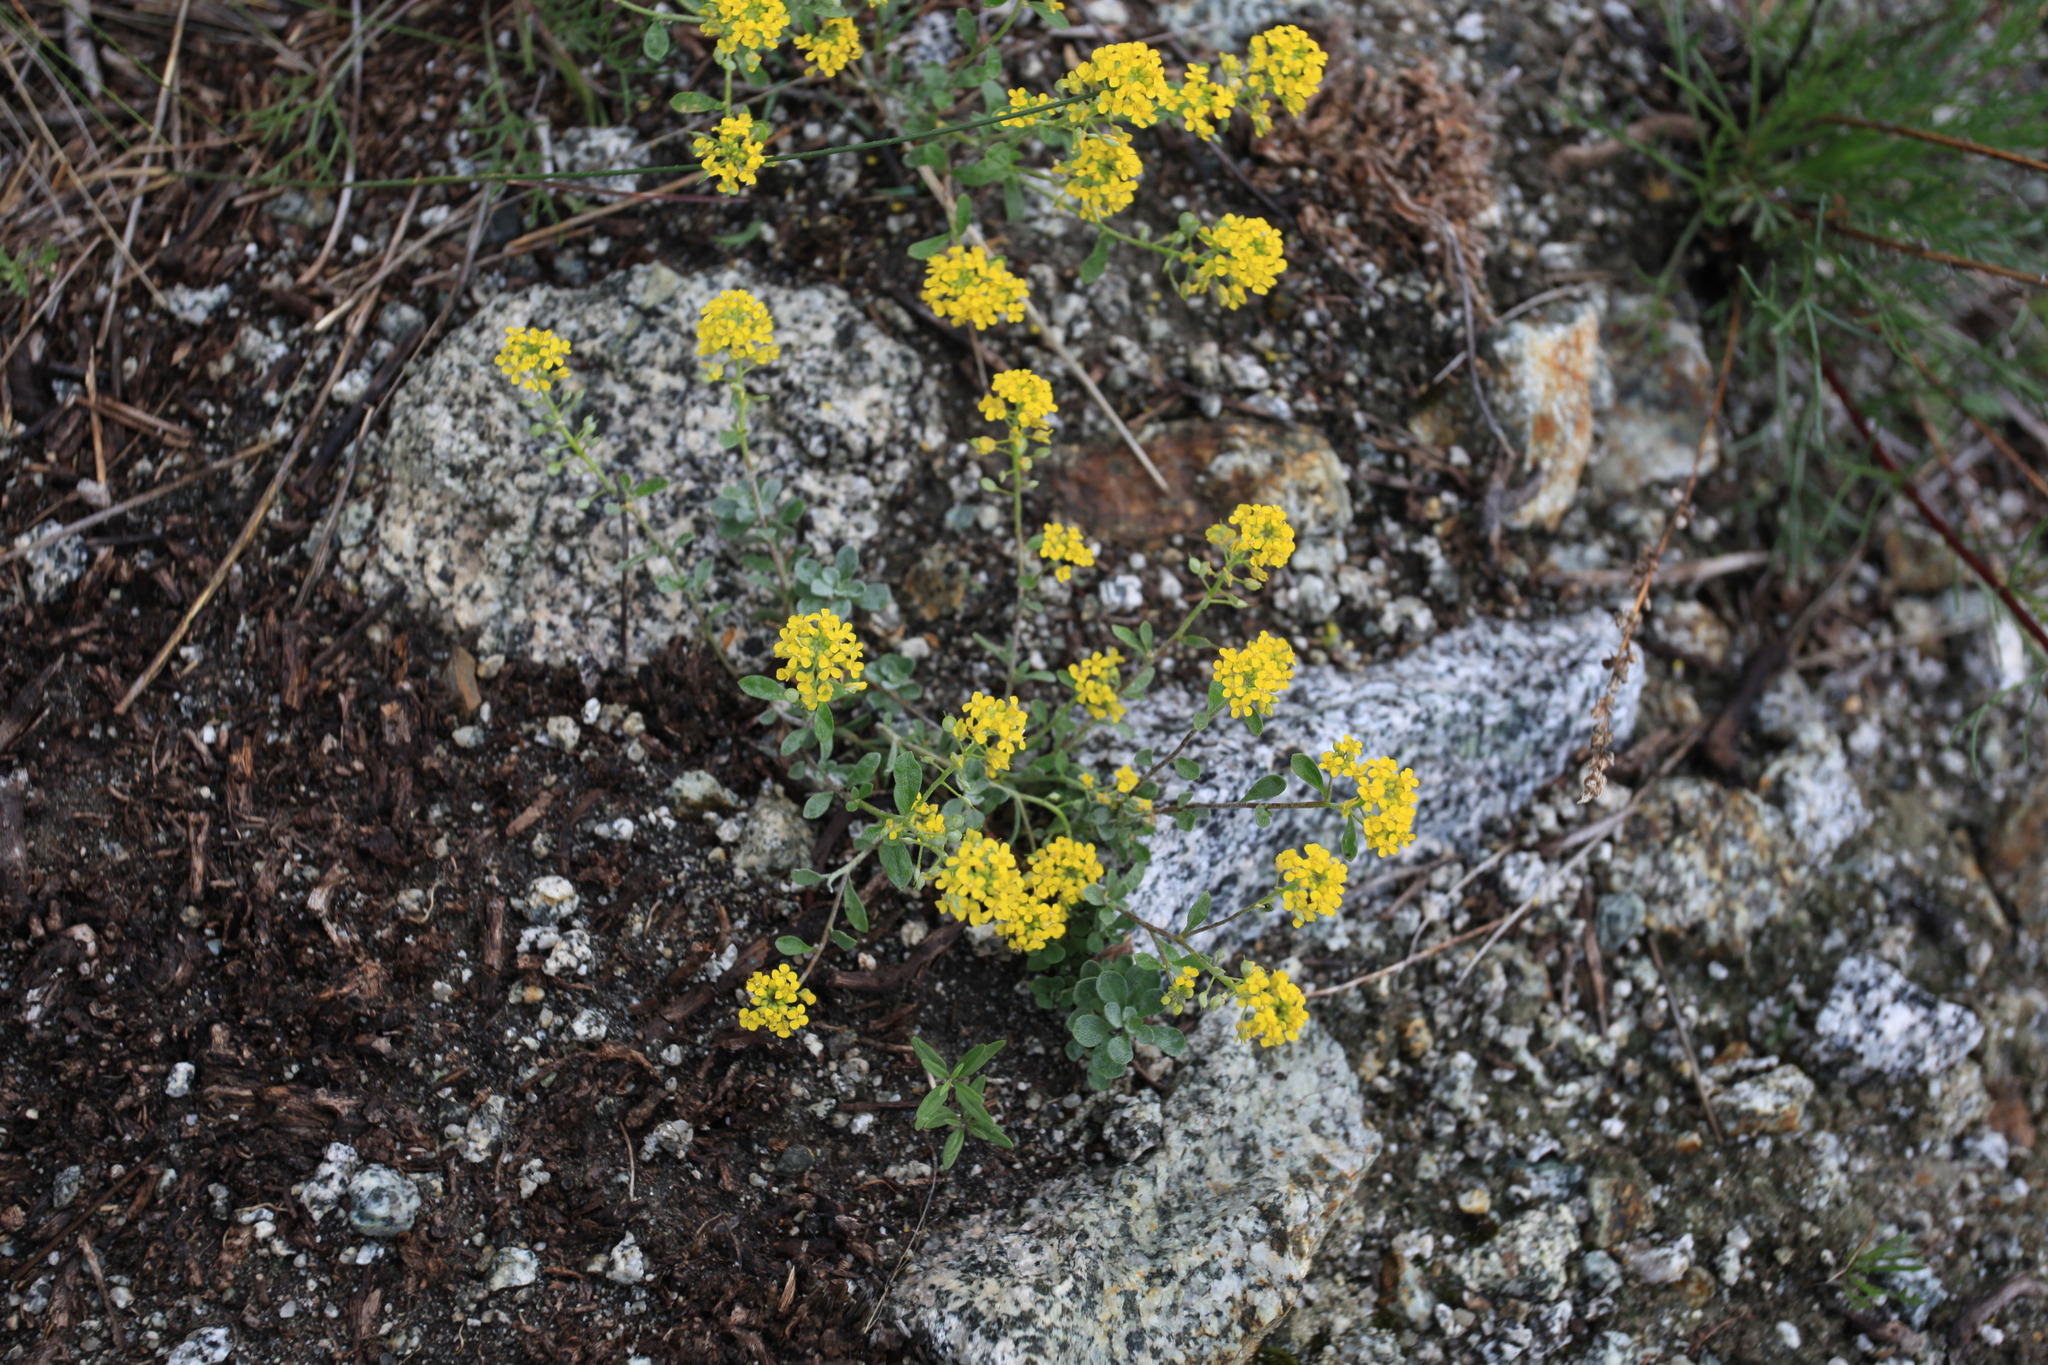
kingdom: Plantae
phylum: Tracheophyta
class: Magnoliopsida
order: Brassicales
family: Brassicaceae
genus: Odontarrhena
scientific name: Odontarrhena obovata
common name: American alyssum
